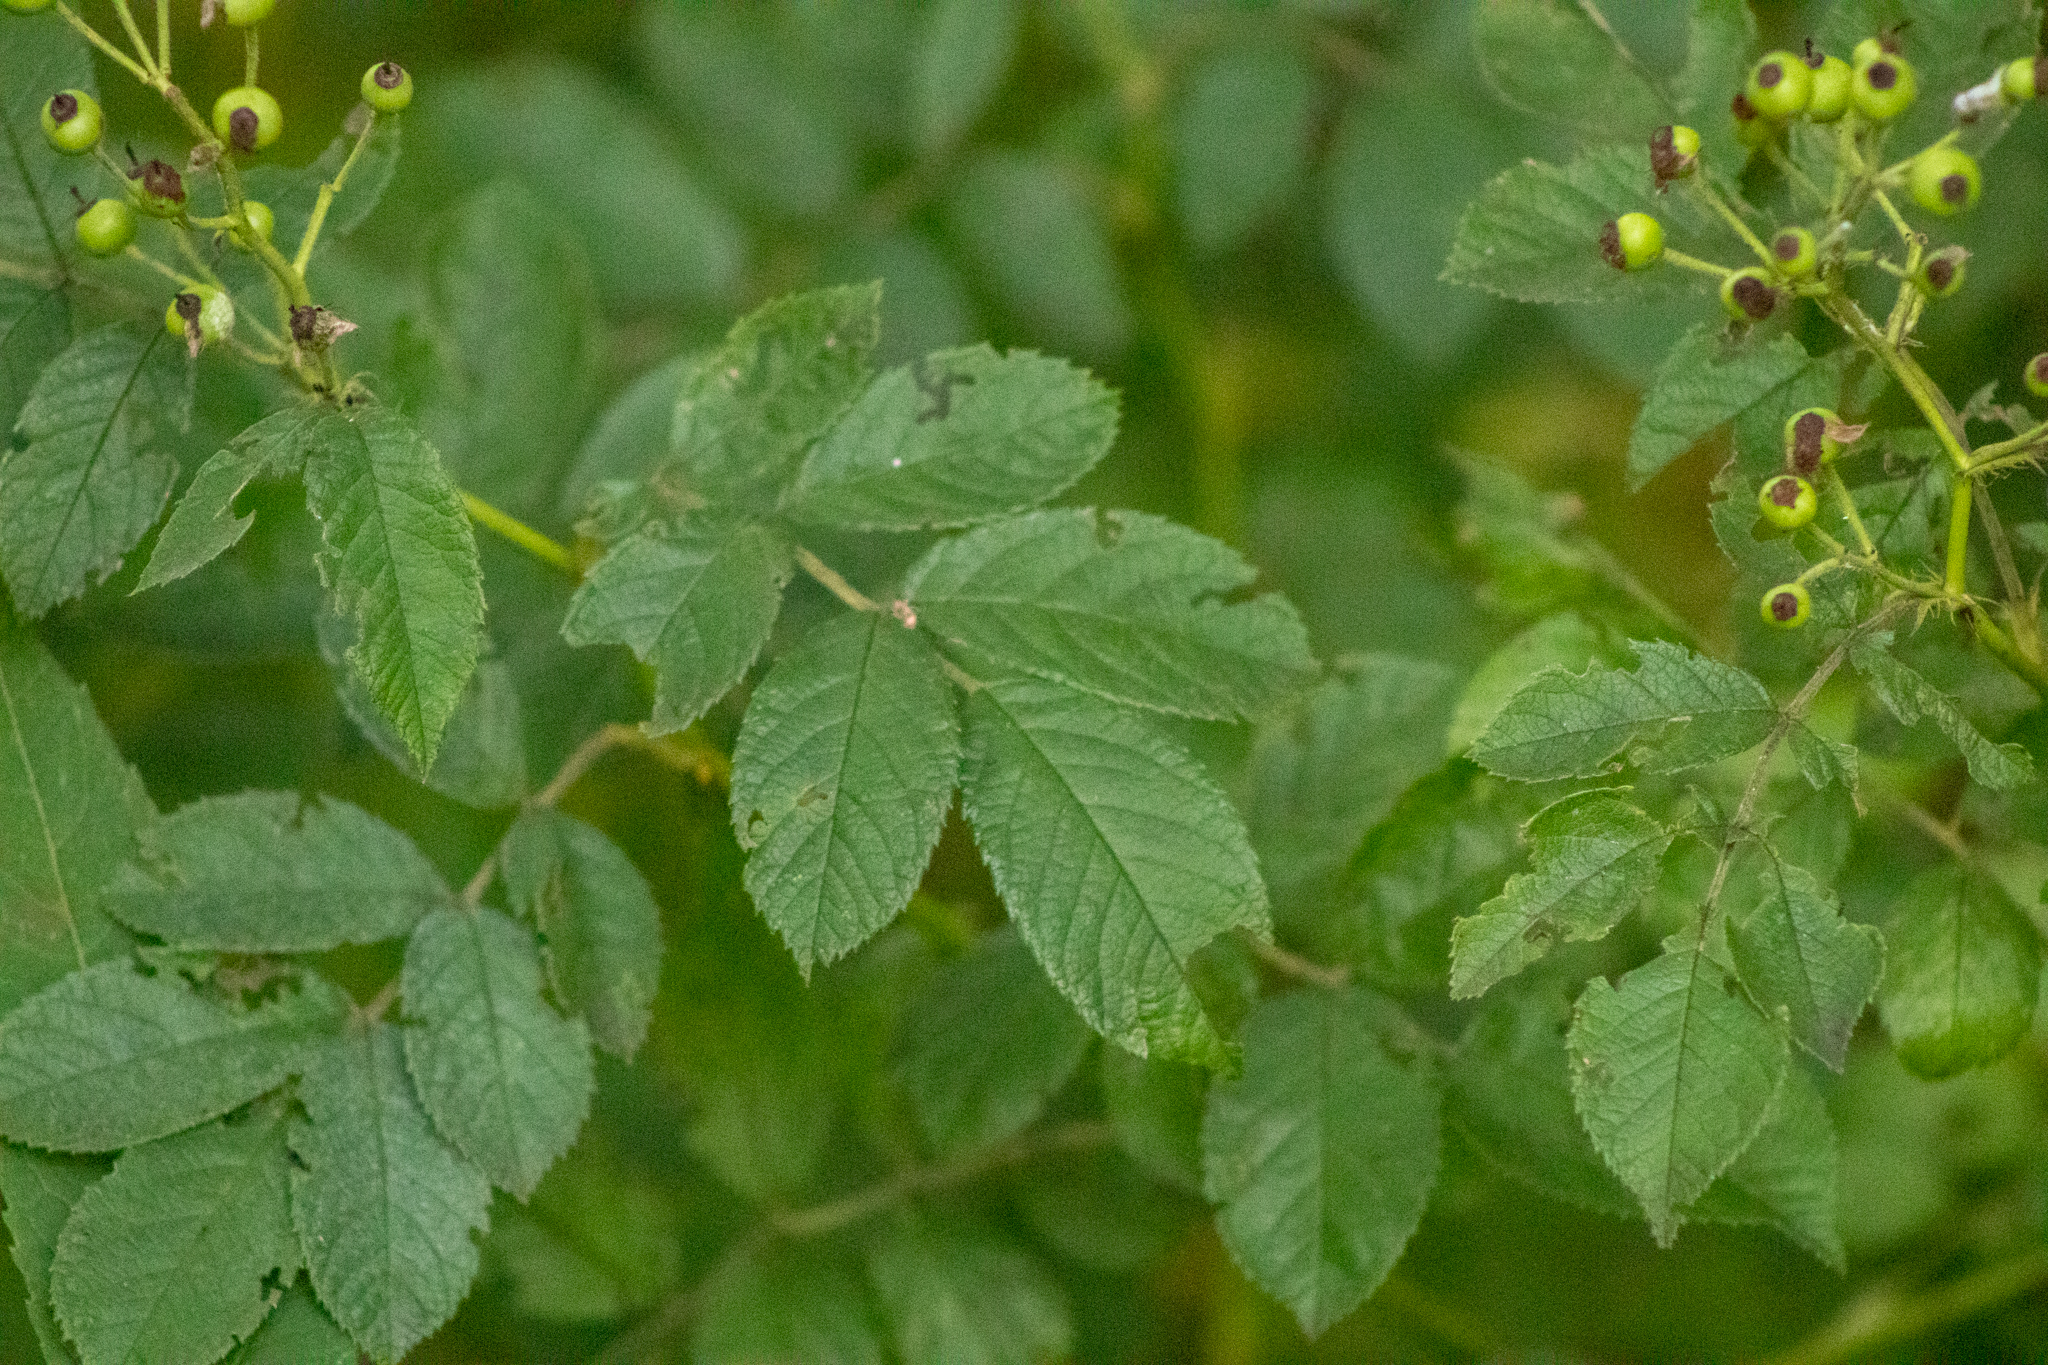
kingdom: Plantae
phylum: Tracheophyta
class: Magnoliopsida
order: Rosales
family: Rosaceae
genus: Rosa
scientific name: Rosa multiflora
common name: Multiflora rose
